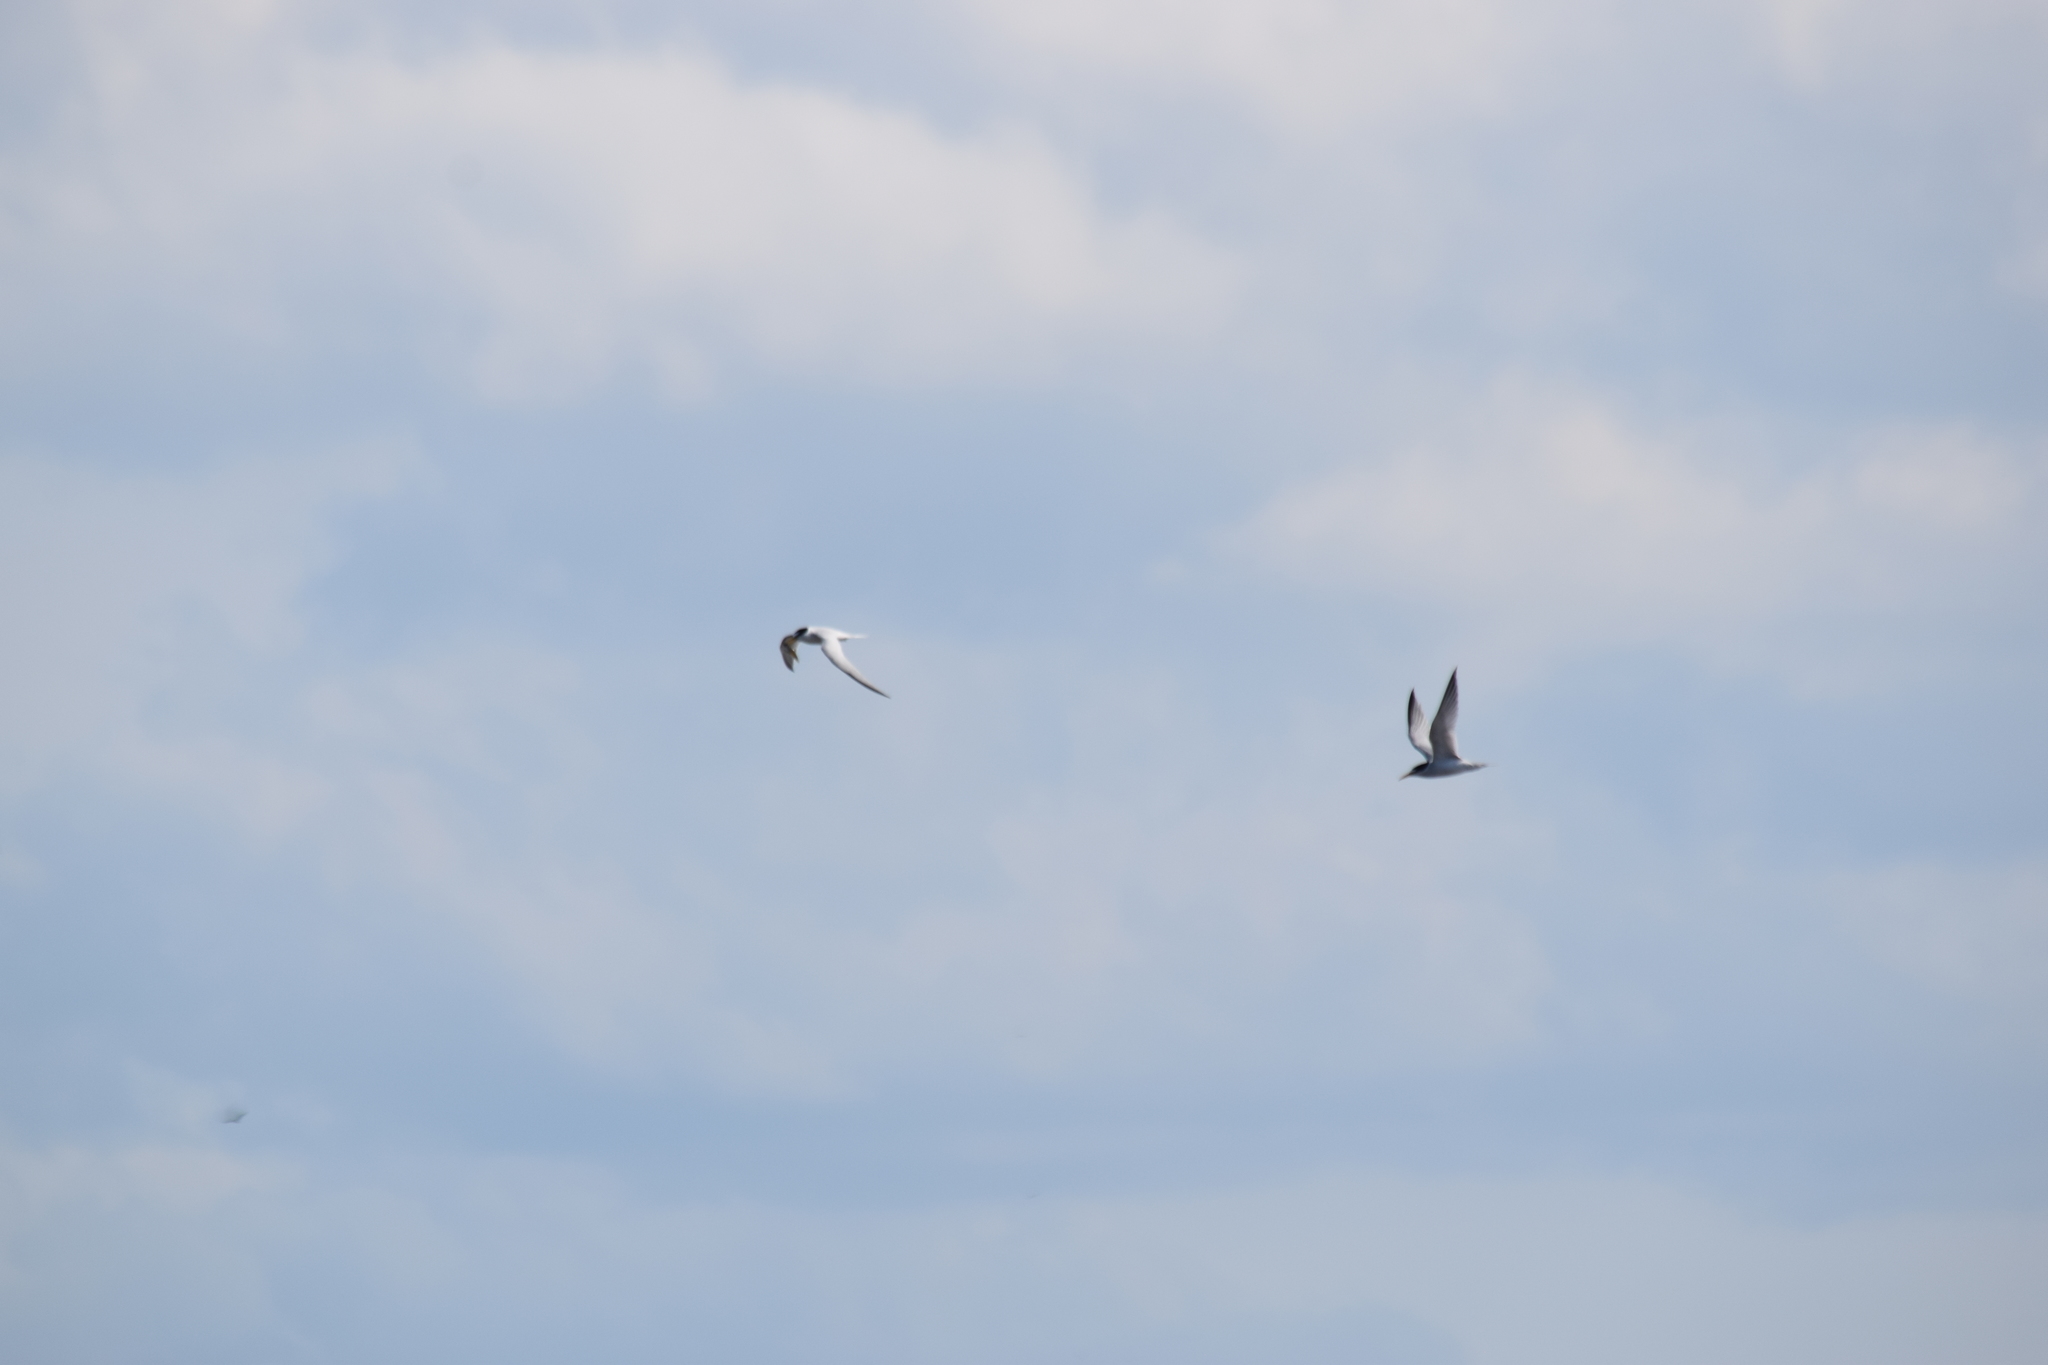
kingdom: Animalia
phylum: Chordata
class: Aves
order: Charadriiformes
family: Laridae
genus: Sternula
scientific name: Sternula antillarum
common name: Least tern
